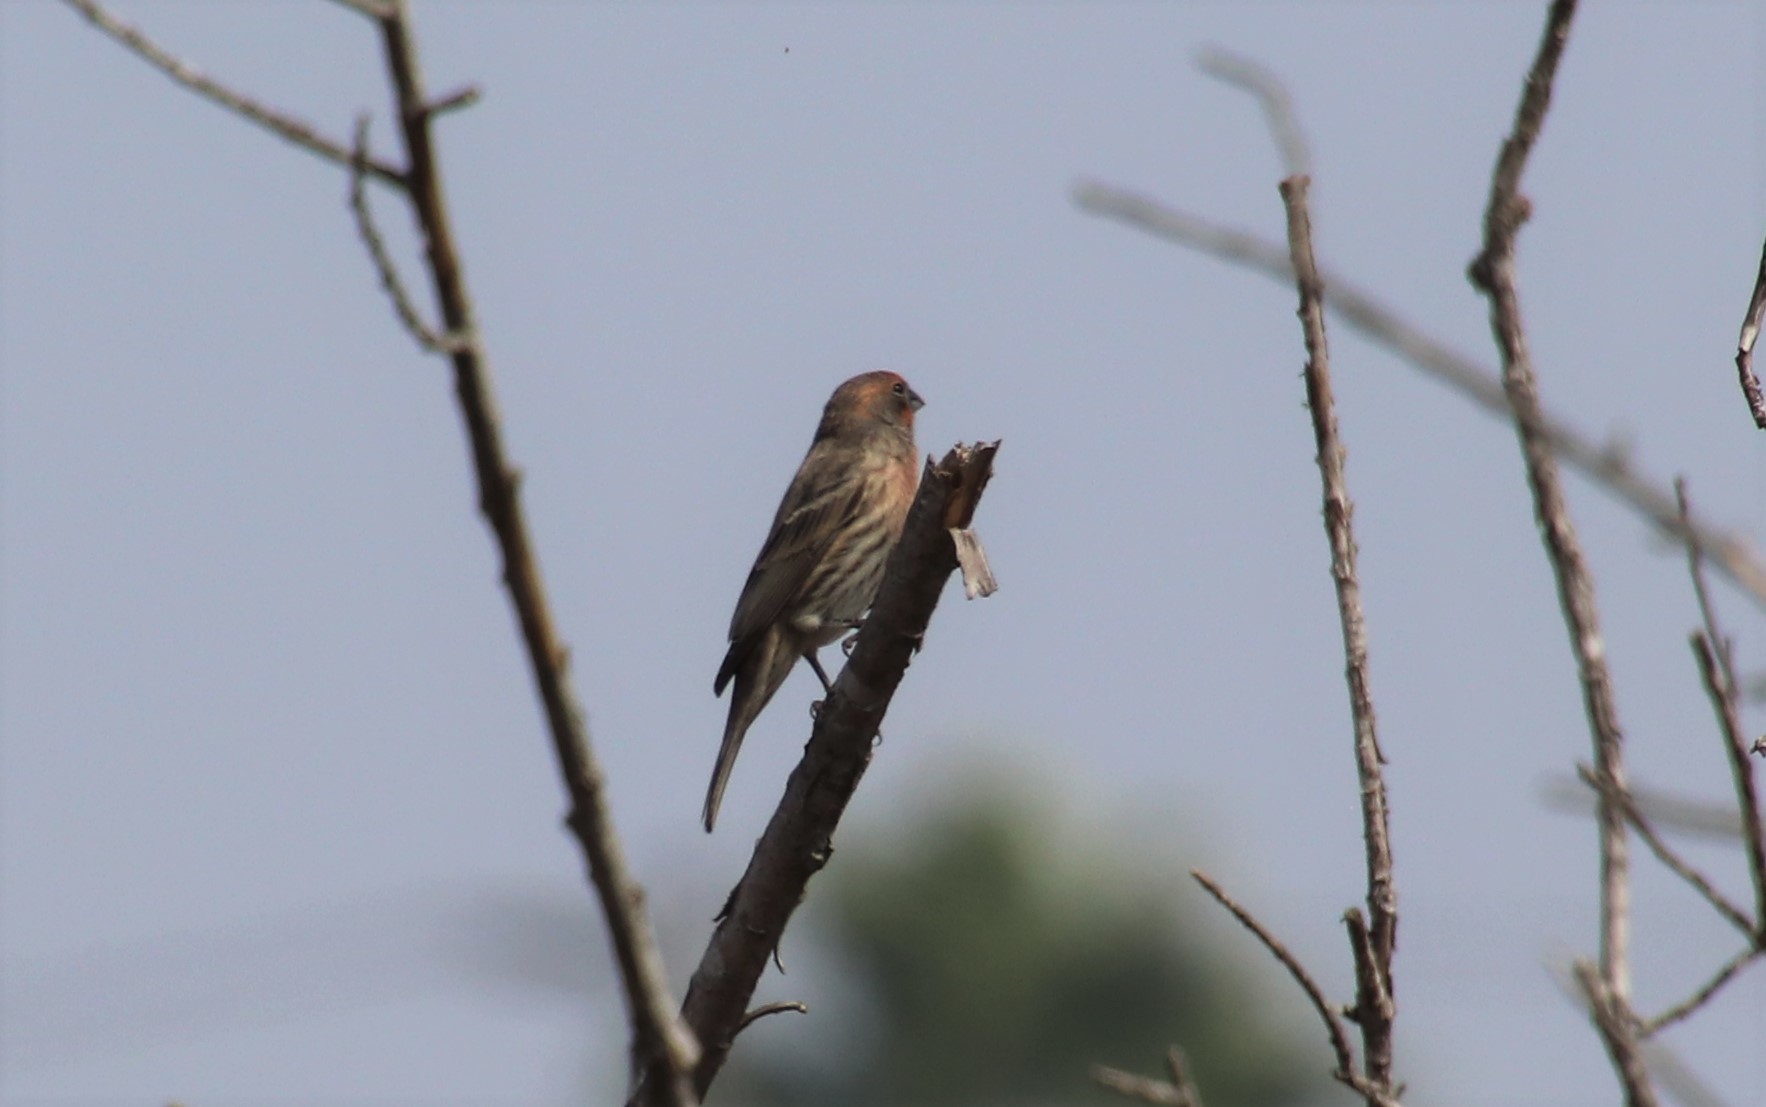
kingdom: Animalia
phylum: Chordata
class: Aves
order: Passeriformes
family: Fringillidae
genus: Haemorhous
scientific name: Haemorhous mexicanus
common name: House finch
